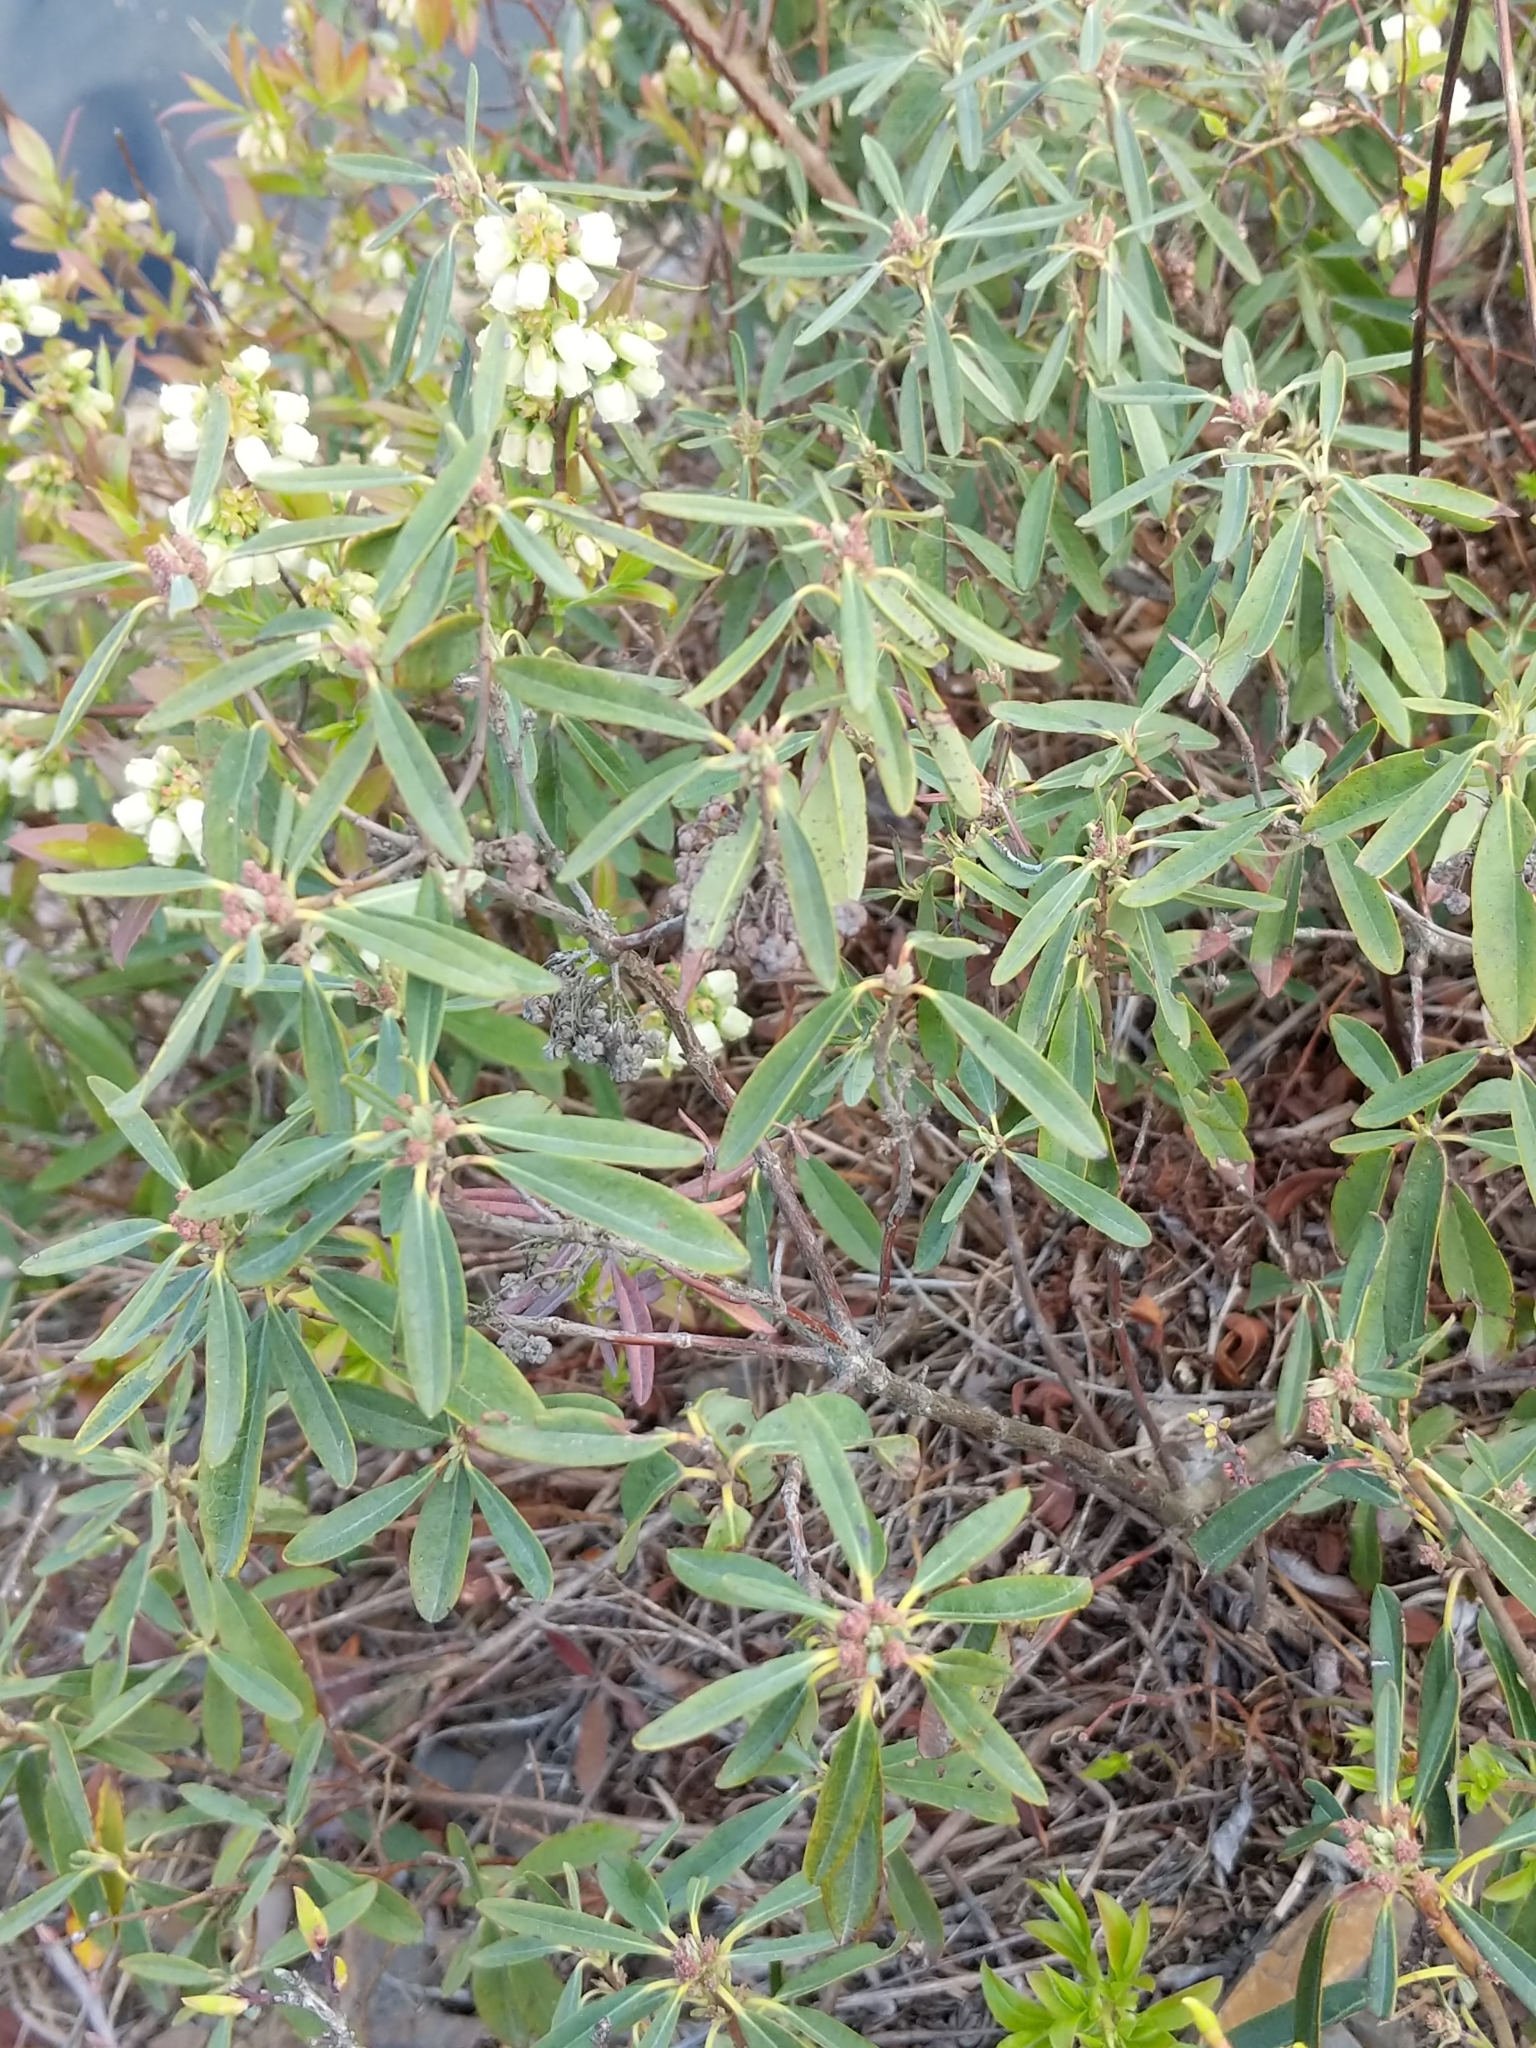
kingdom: Plantae
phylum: Tracheophyta
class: Magnoliopsida
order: Ericales
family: Ericaceae
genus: Kalmia
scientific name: Kalmia angustifolia
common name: Sheep-laurel
